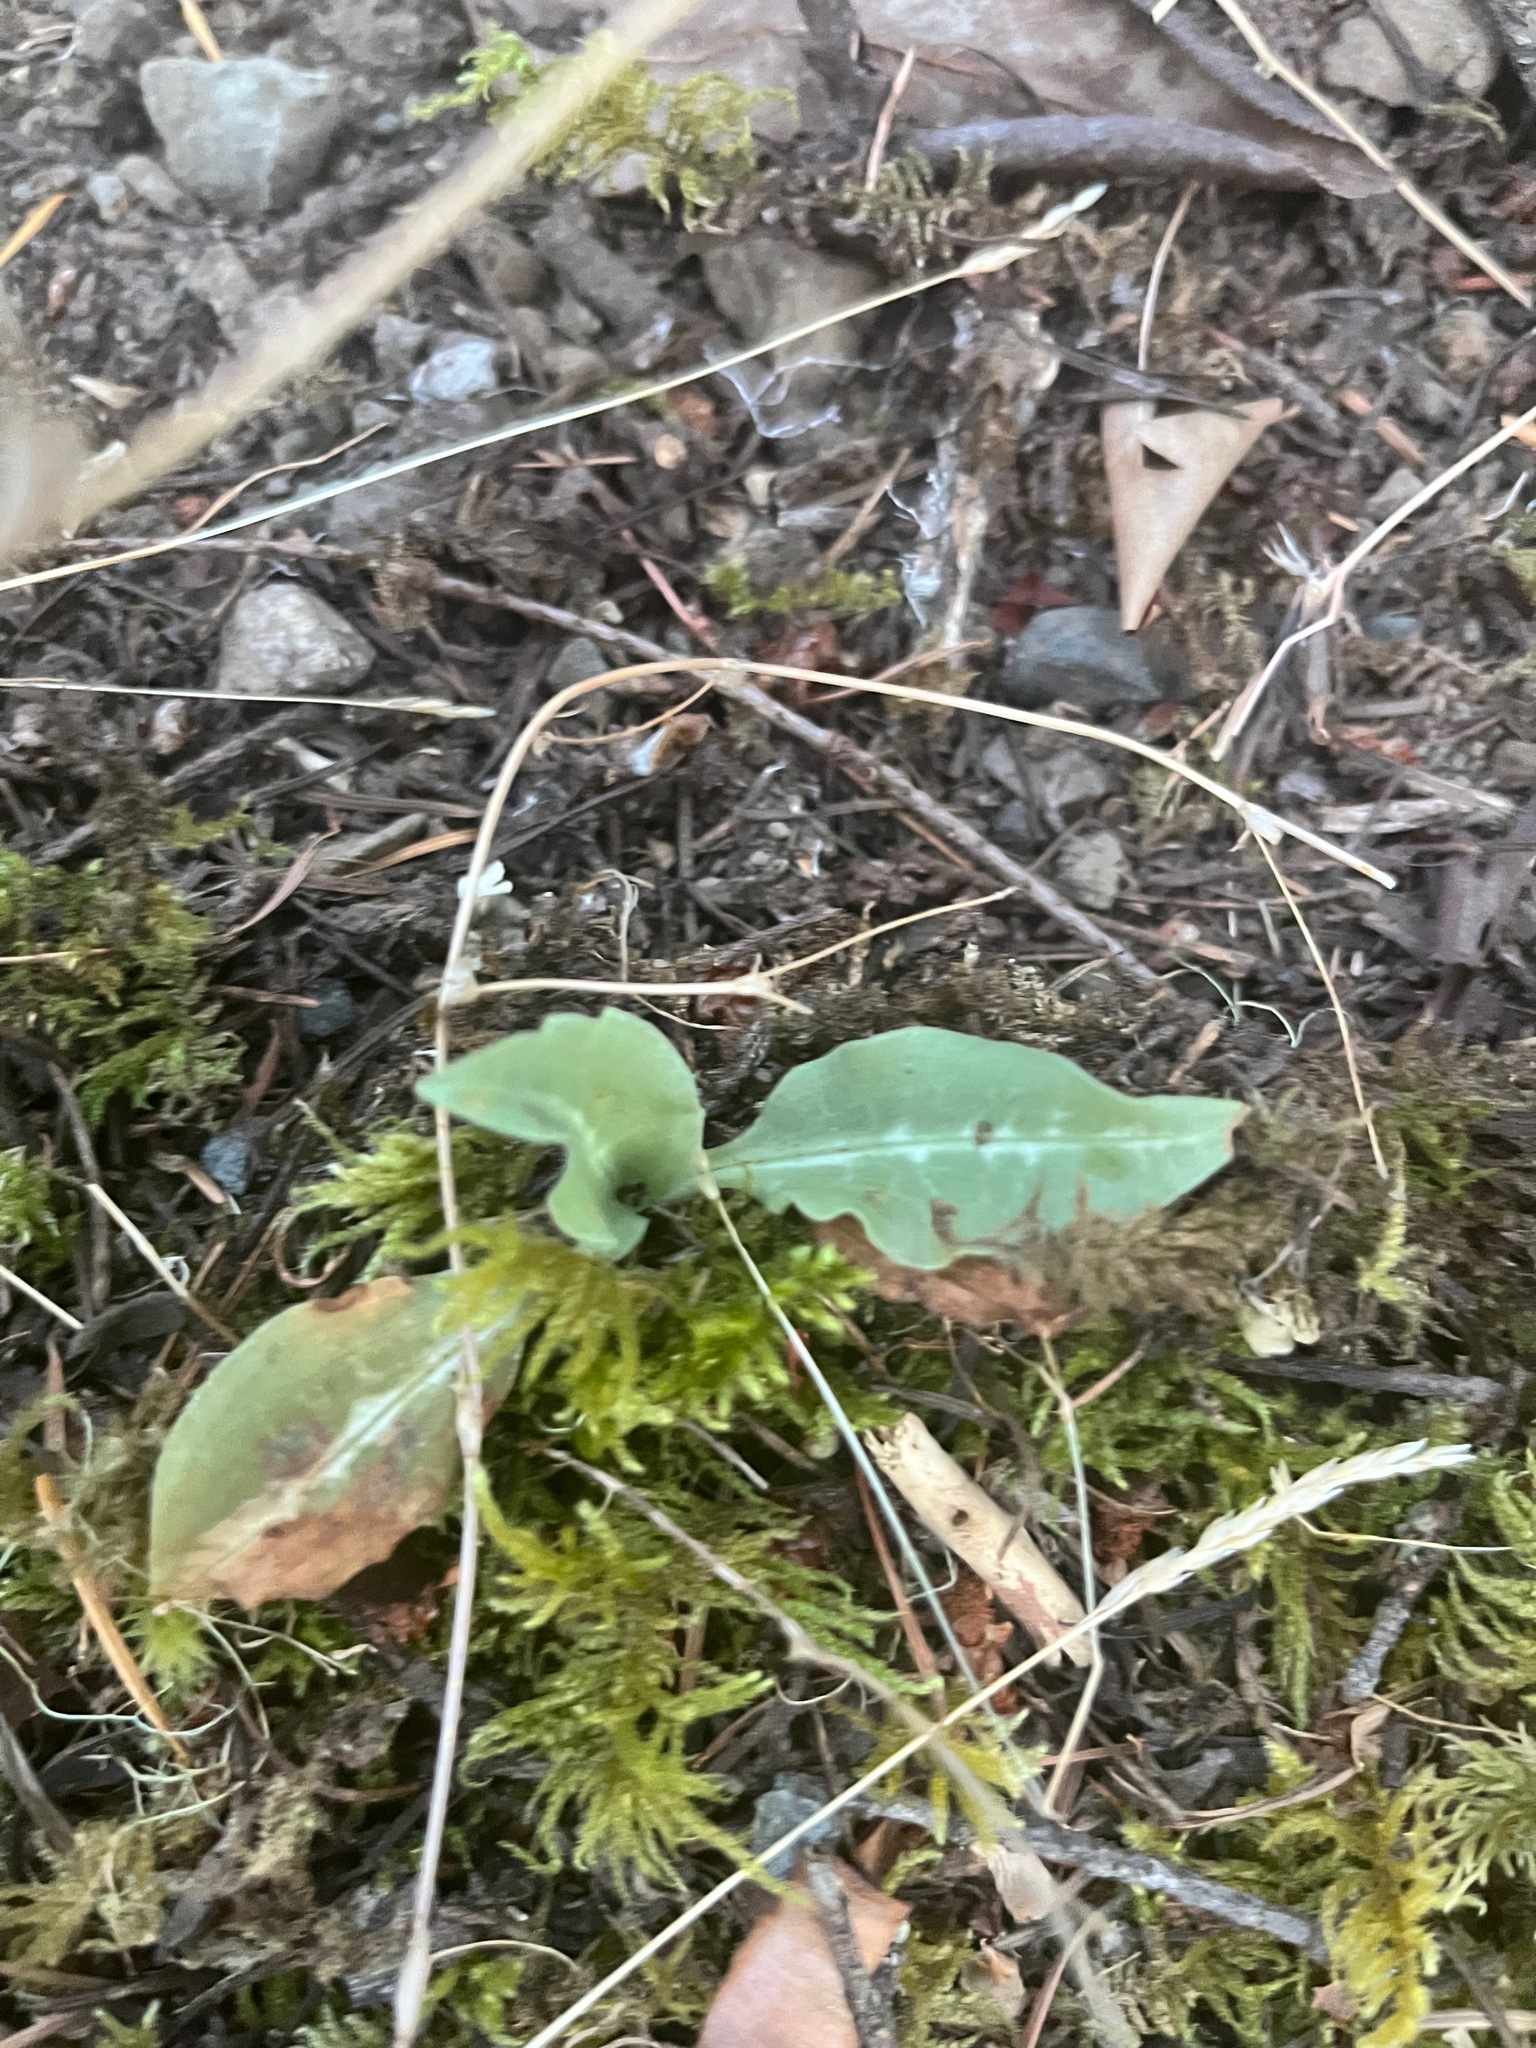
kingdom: Plantae
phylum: Tracheophyta
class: Liliopsida
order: Asparagales
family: Orchidaceae
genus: Goodyera
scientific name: Goodyera oblongifolia
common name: Giant rattlesnake-plantain
